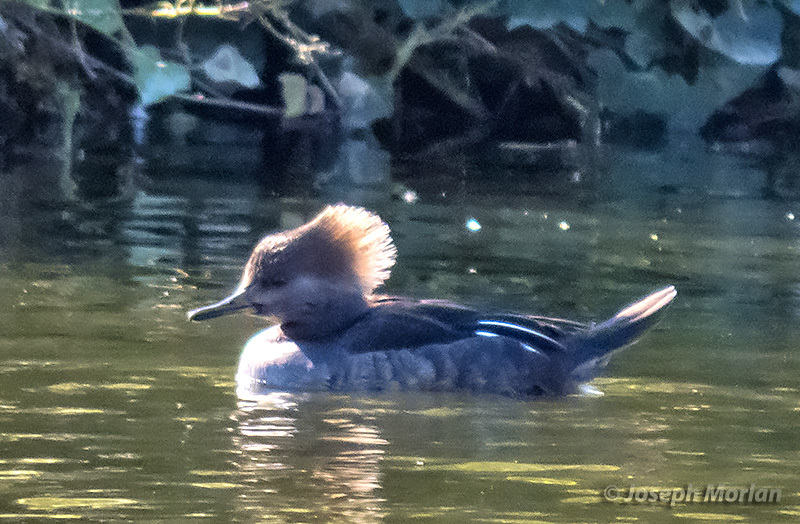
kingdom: Animalia
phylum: Chordata
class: Aves
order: Anseriformes
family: Anatidae
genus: Lophodytes
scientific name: Lophodytes cucullatus
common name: Hooded merganser
